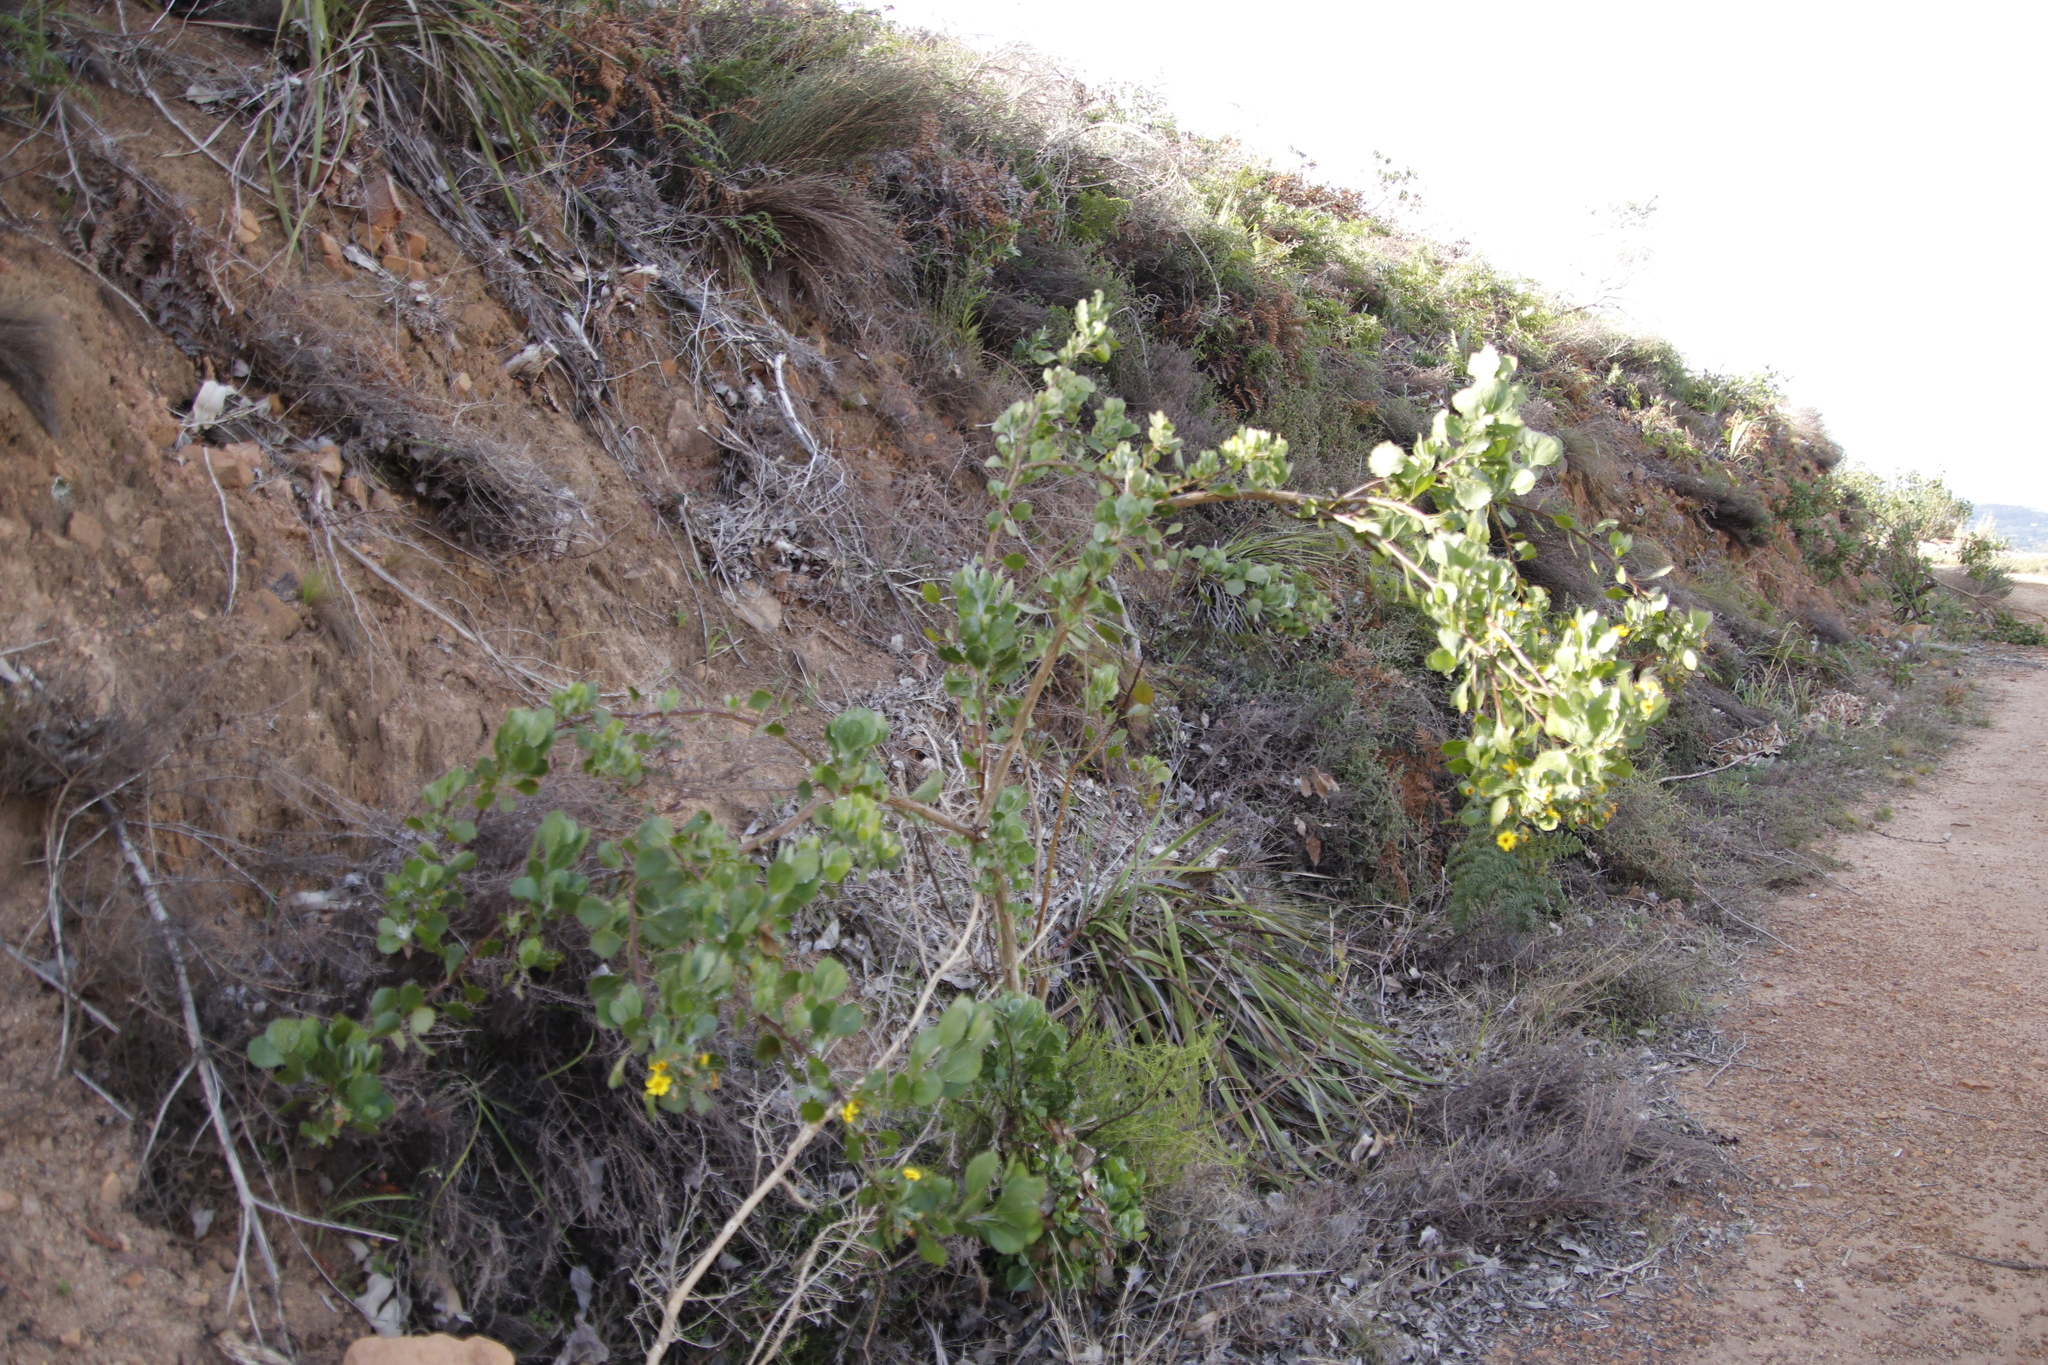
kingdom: Plantae
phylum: Tracheophyta
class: Magnoliopsida
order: Asterales
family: Asteraceae
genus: Osteospermum
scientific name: Osteospermum moniliferum
